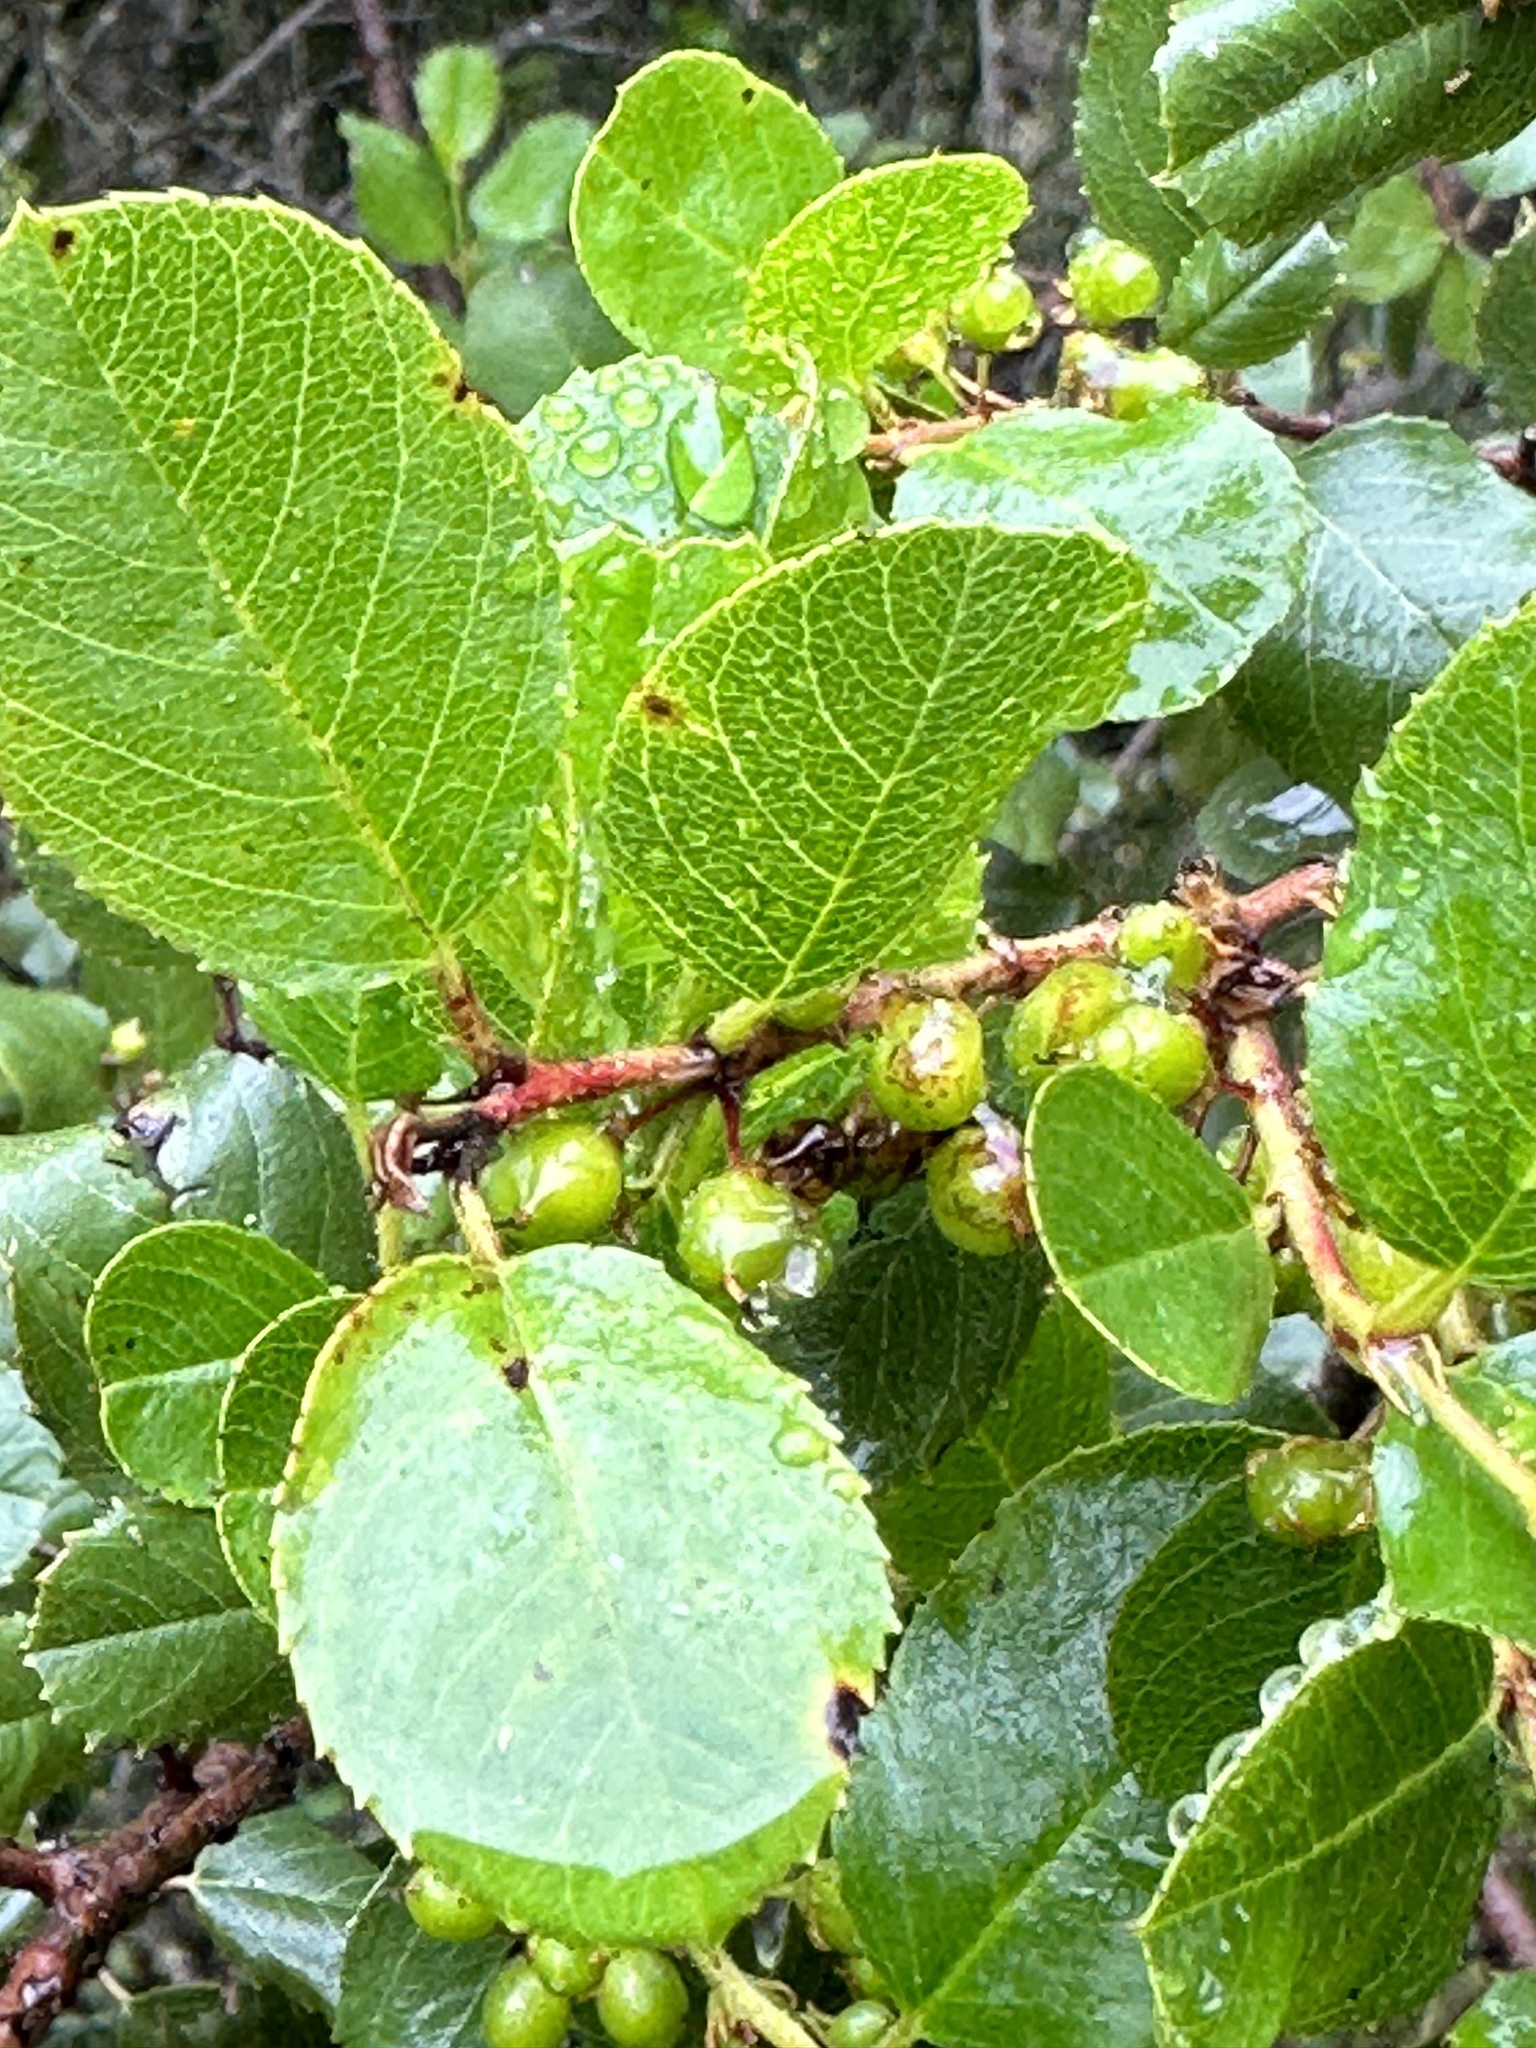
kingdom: Plantae
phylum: Tracheophyta
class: Magnoliopsida
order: Rosales
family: Rhamnaceae
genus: Endotropis
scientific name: Endotropis crocea
